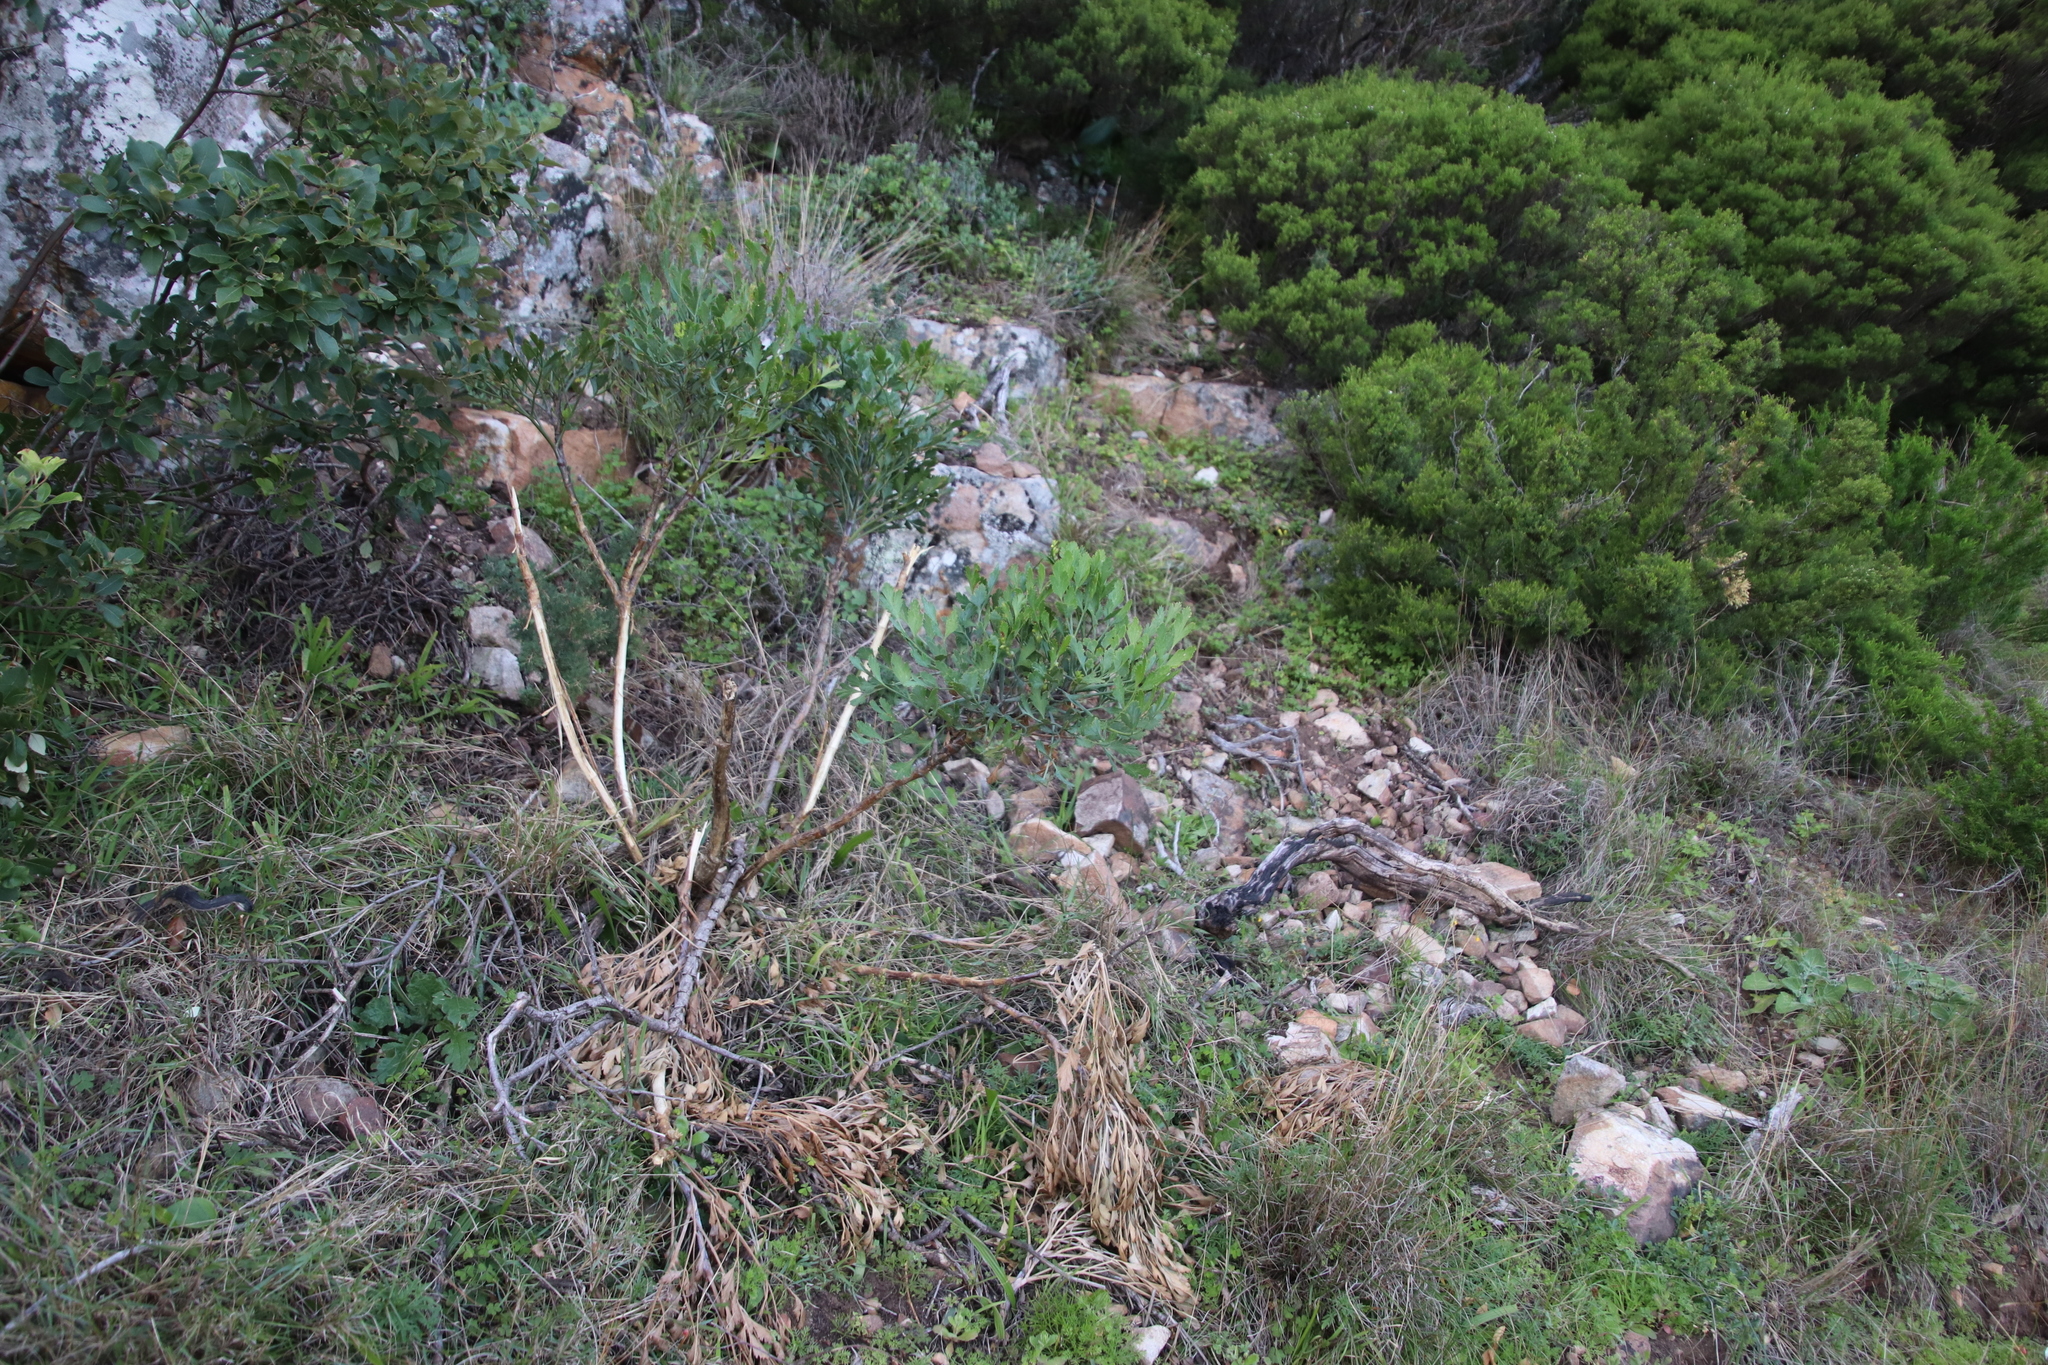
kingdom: Plantae
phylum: Tracheophyta
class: Magnoliopsida
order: Apiales
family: Apiaceae
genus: Notobubon
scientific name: Notobubon galbanum
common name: Blisterbush
